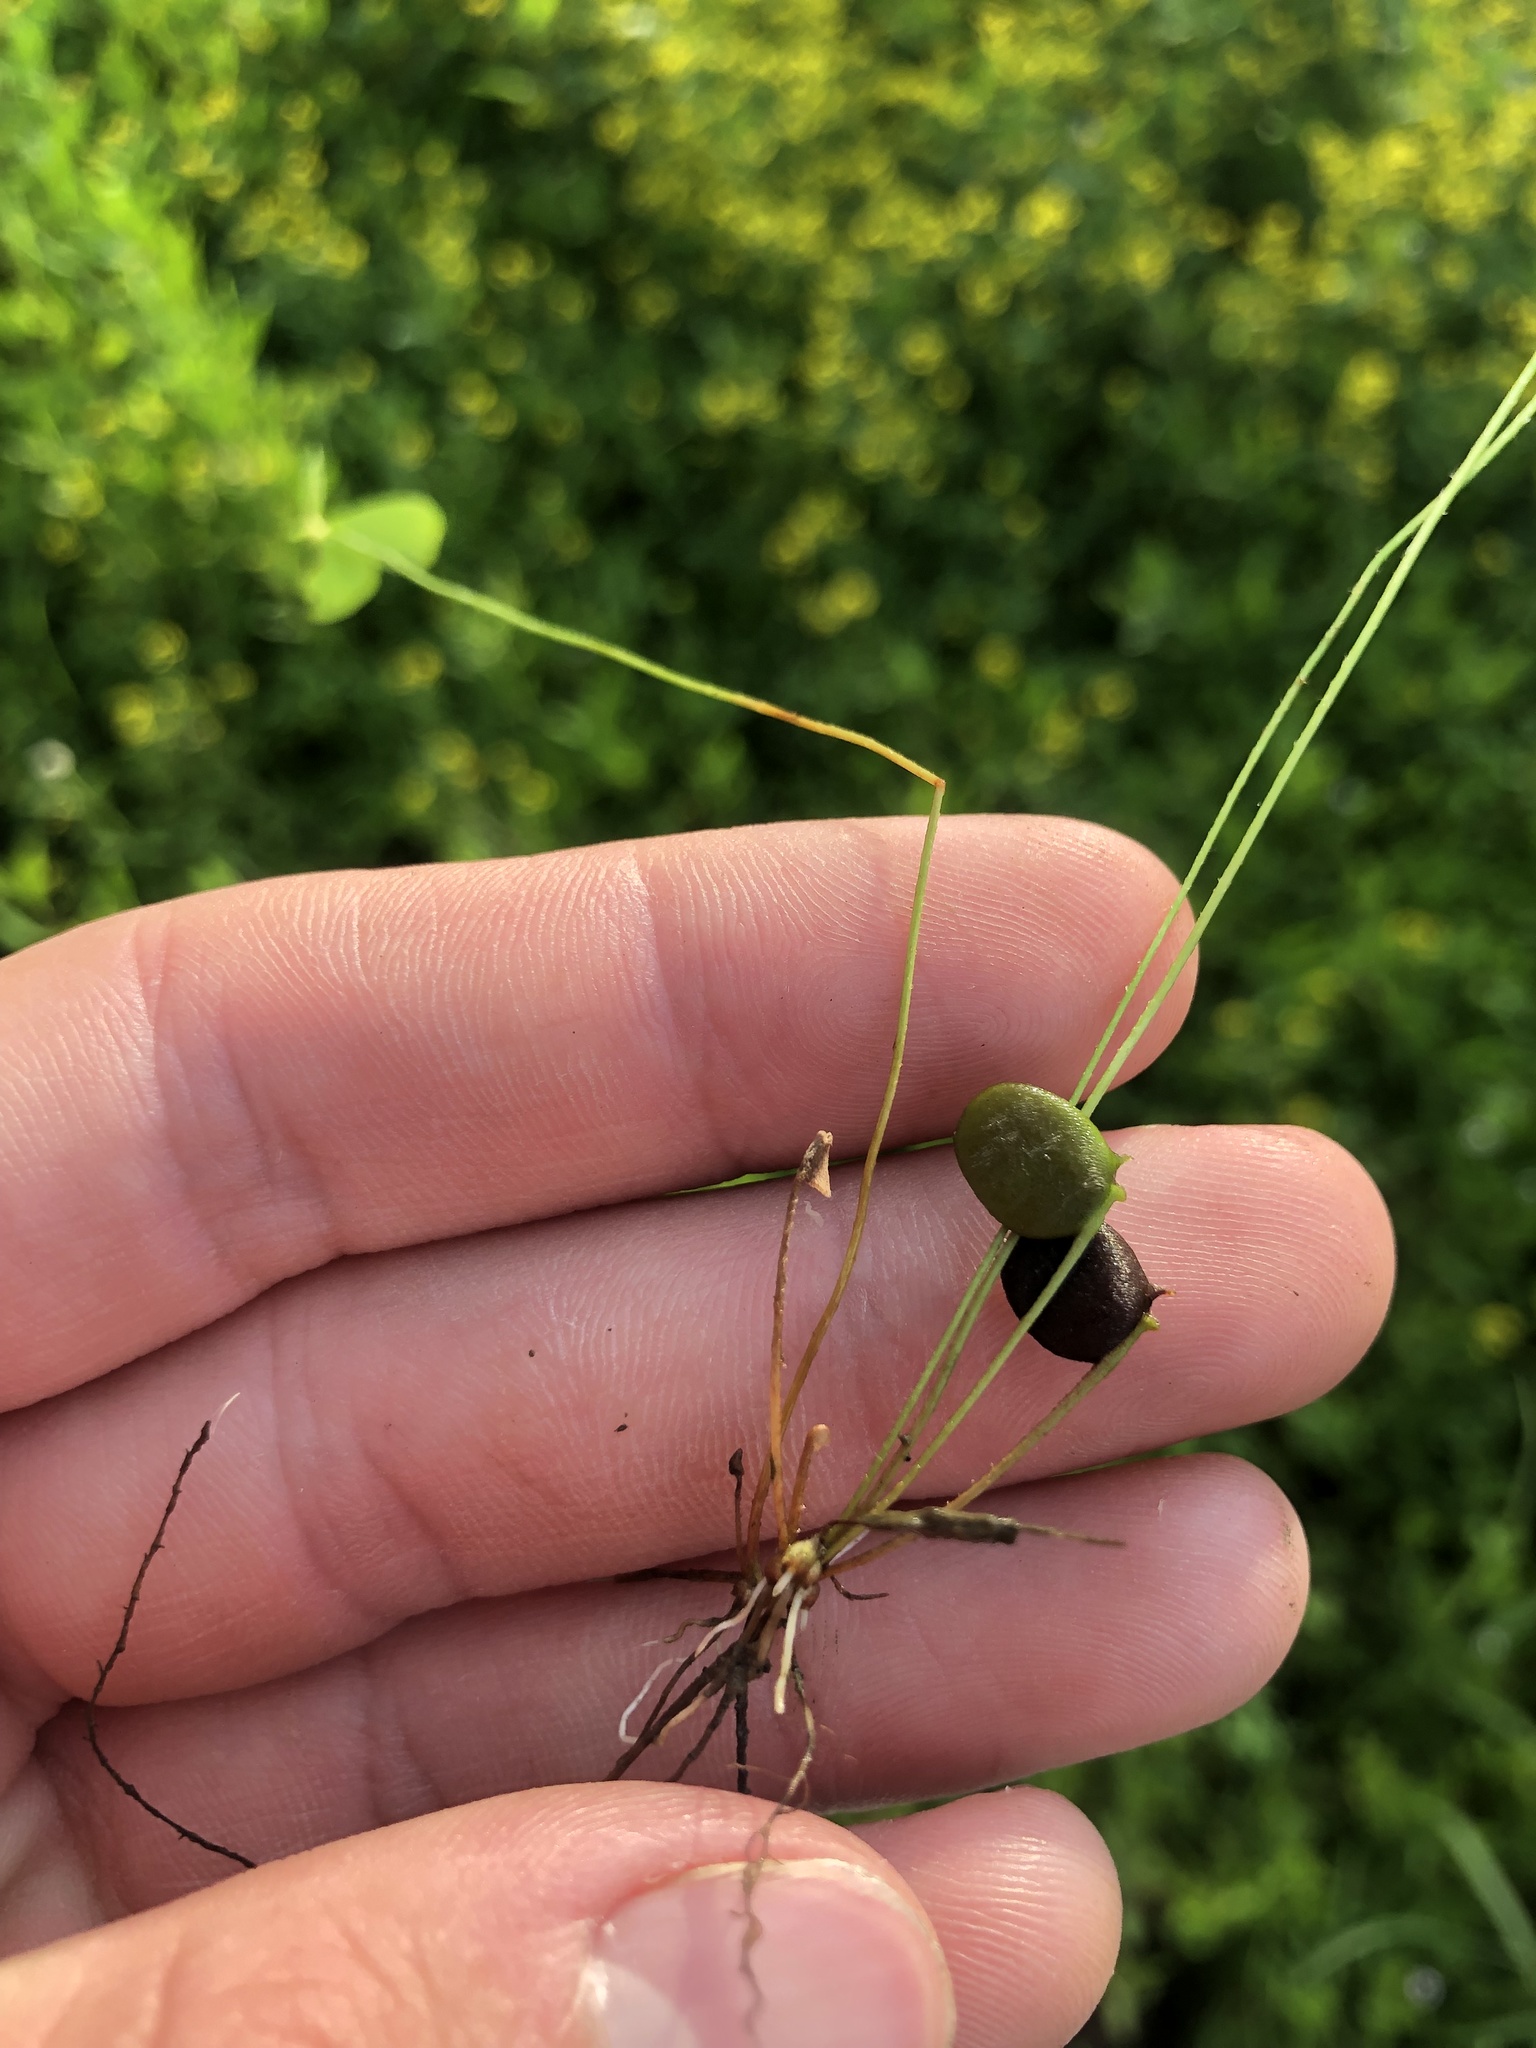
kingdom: Plantae
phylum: Tracheophyta
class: Polypodiopsida
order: Salviniales
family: Marsileaceae
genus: Marsilea
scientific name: Marsilea vestita
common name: Hooked-pepperwort
